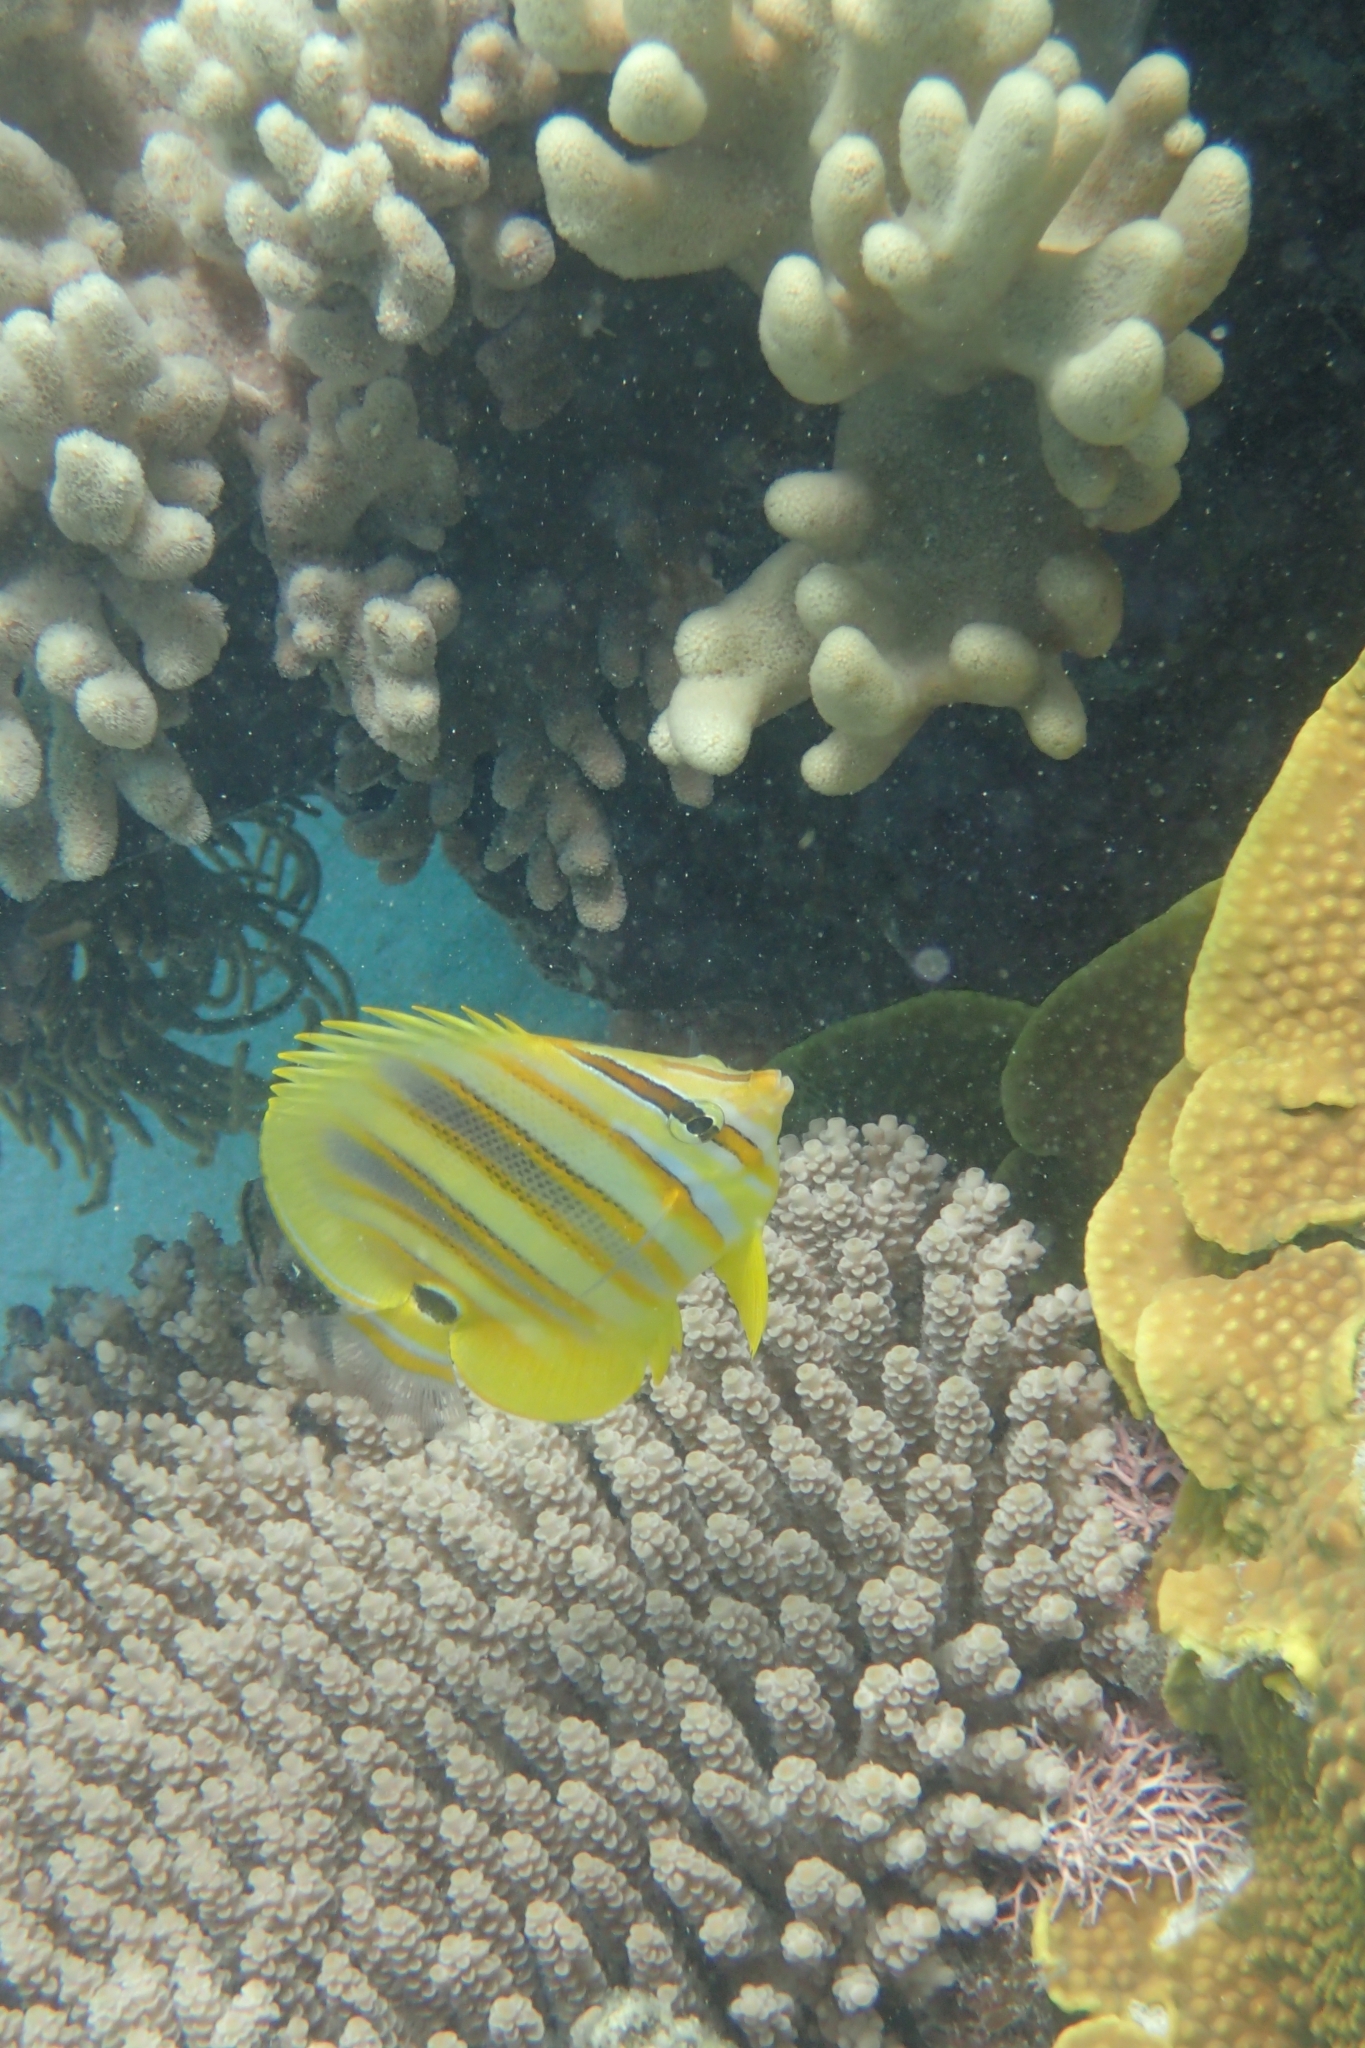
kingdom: Animalia
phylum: Chordata
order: Perciformes
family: Chaetodontidae
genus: Chaetodon
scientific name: Chaetodon rainfordi
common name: Rainford's butterflyfish
